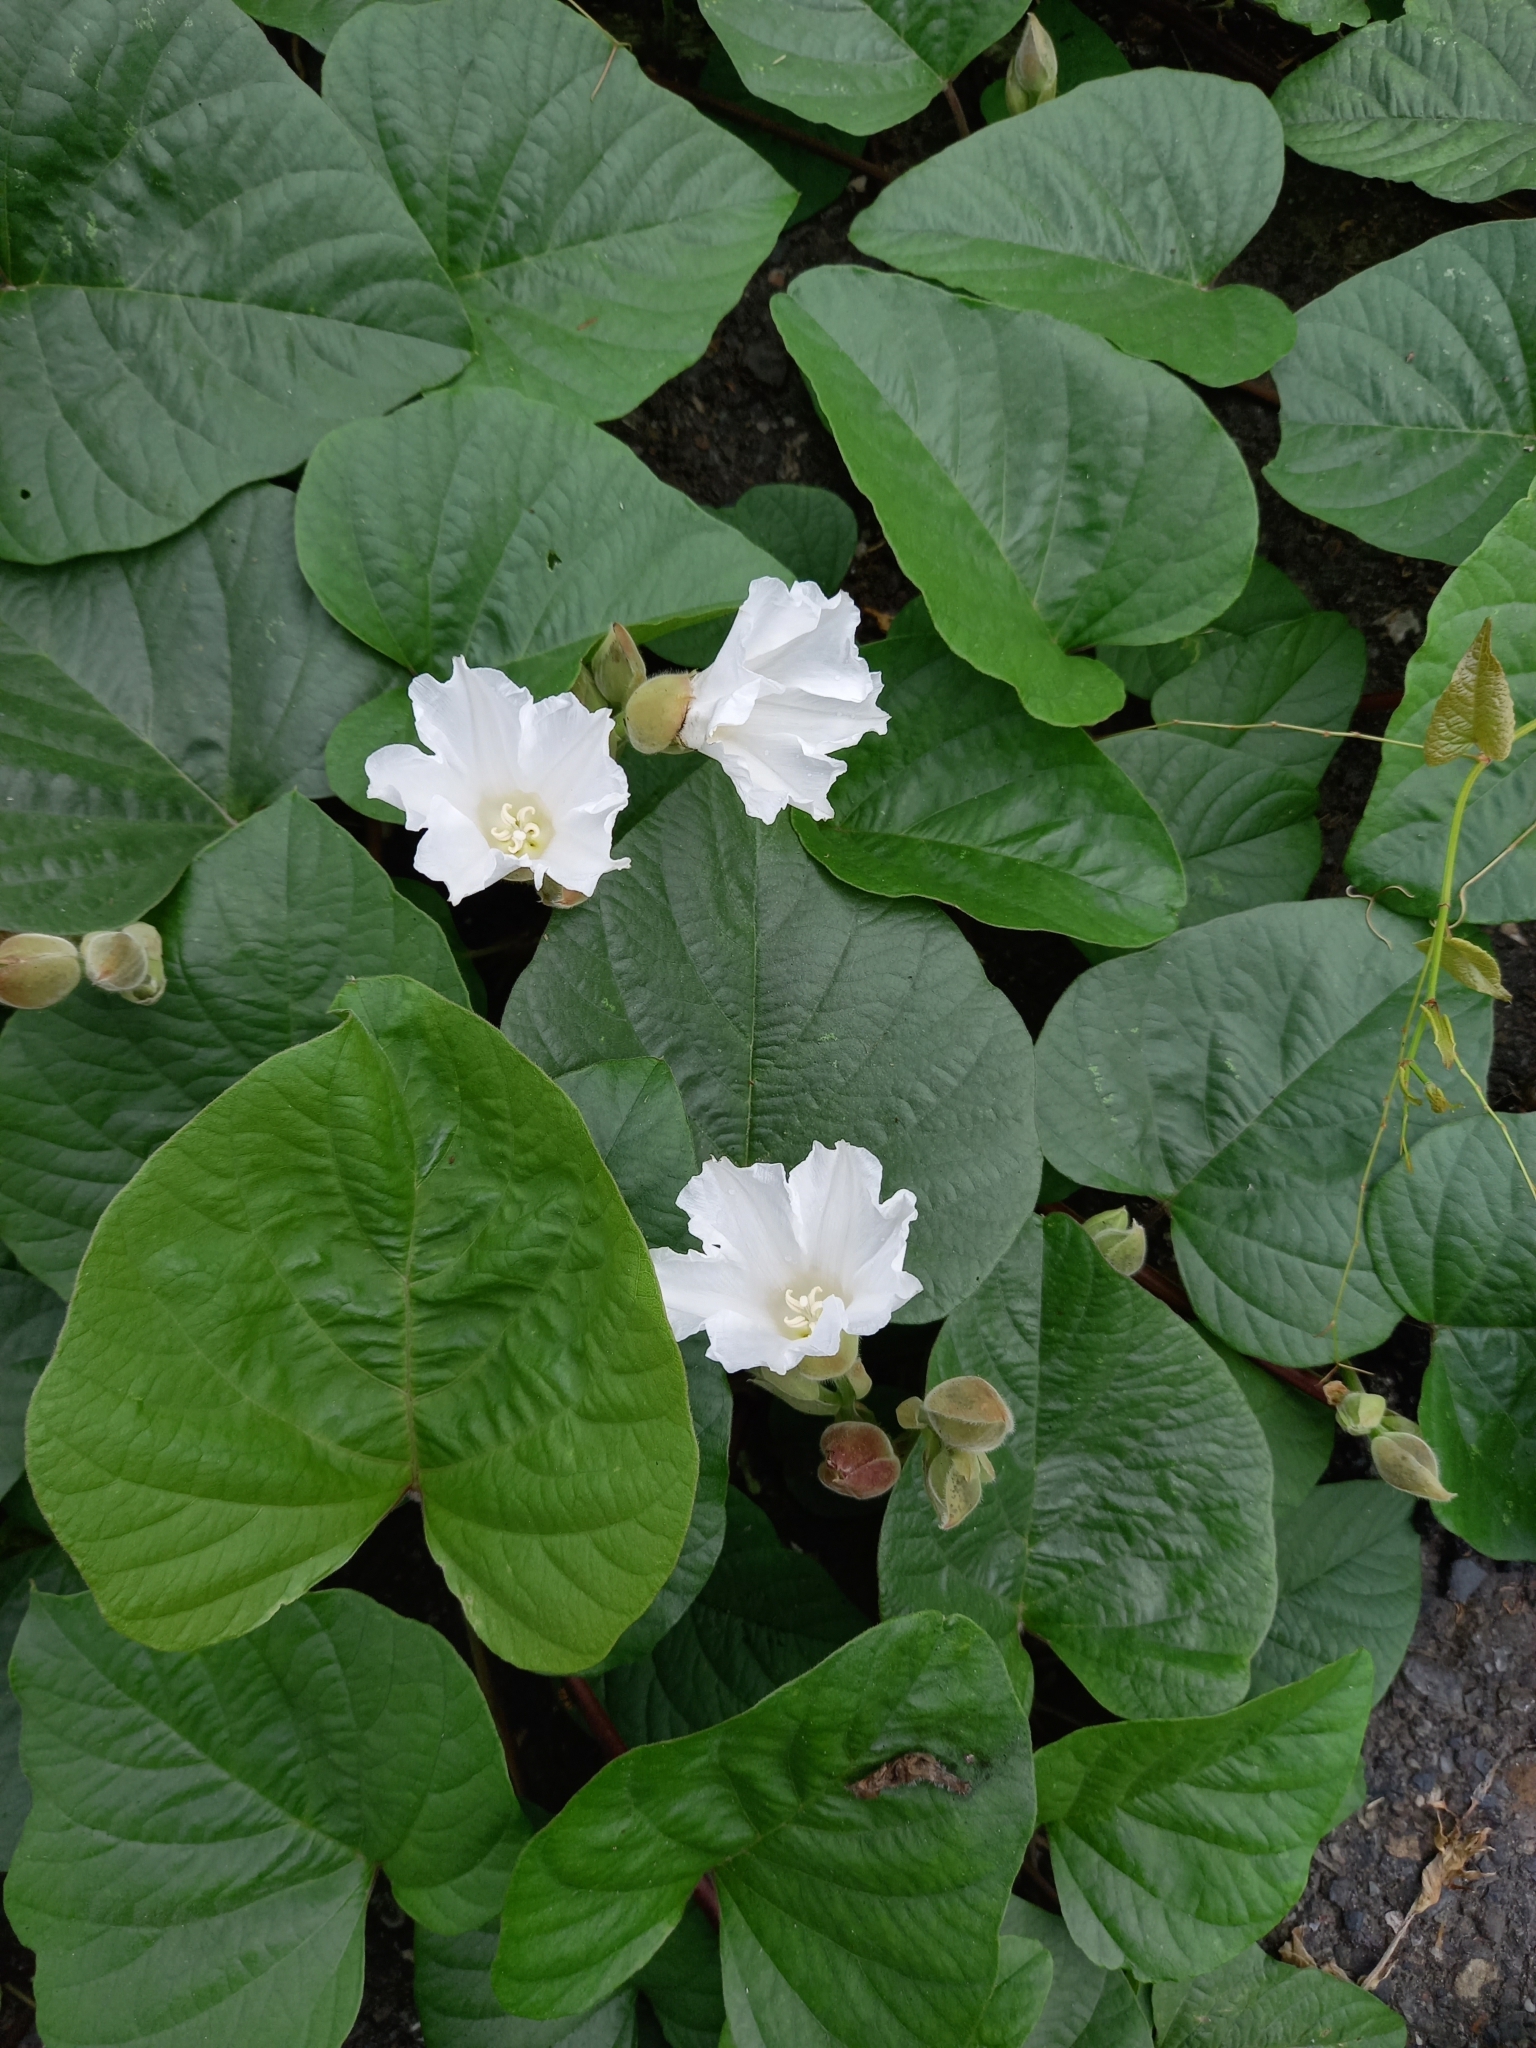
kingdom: Plantae
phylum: Tracheophyta
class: Magnoliopsida
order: Solanales
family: Convolvulaceae
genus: Operculina
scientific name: Operculina turpethum
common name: Transparent wood-rose
